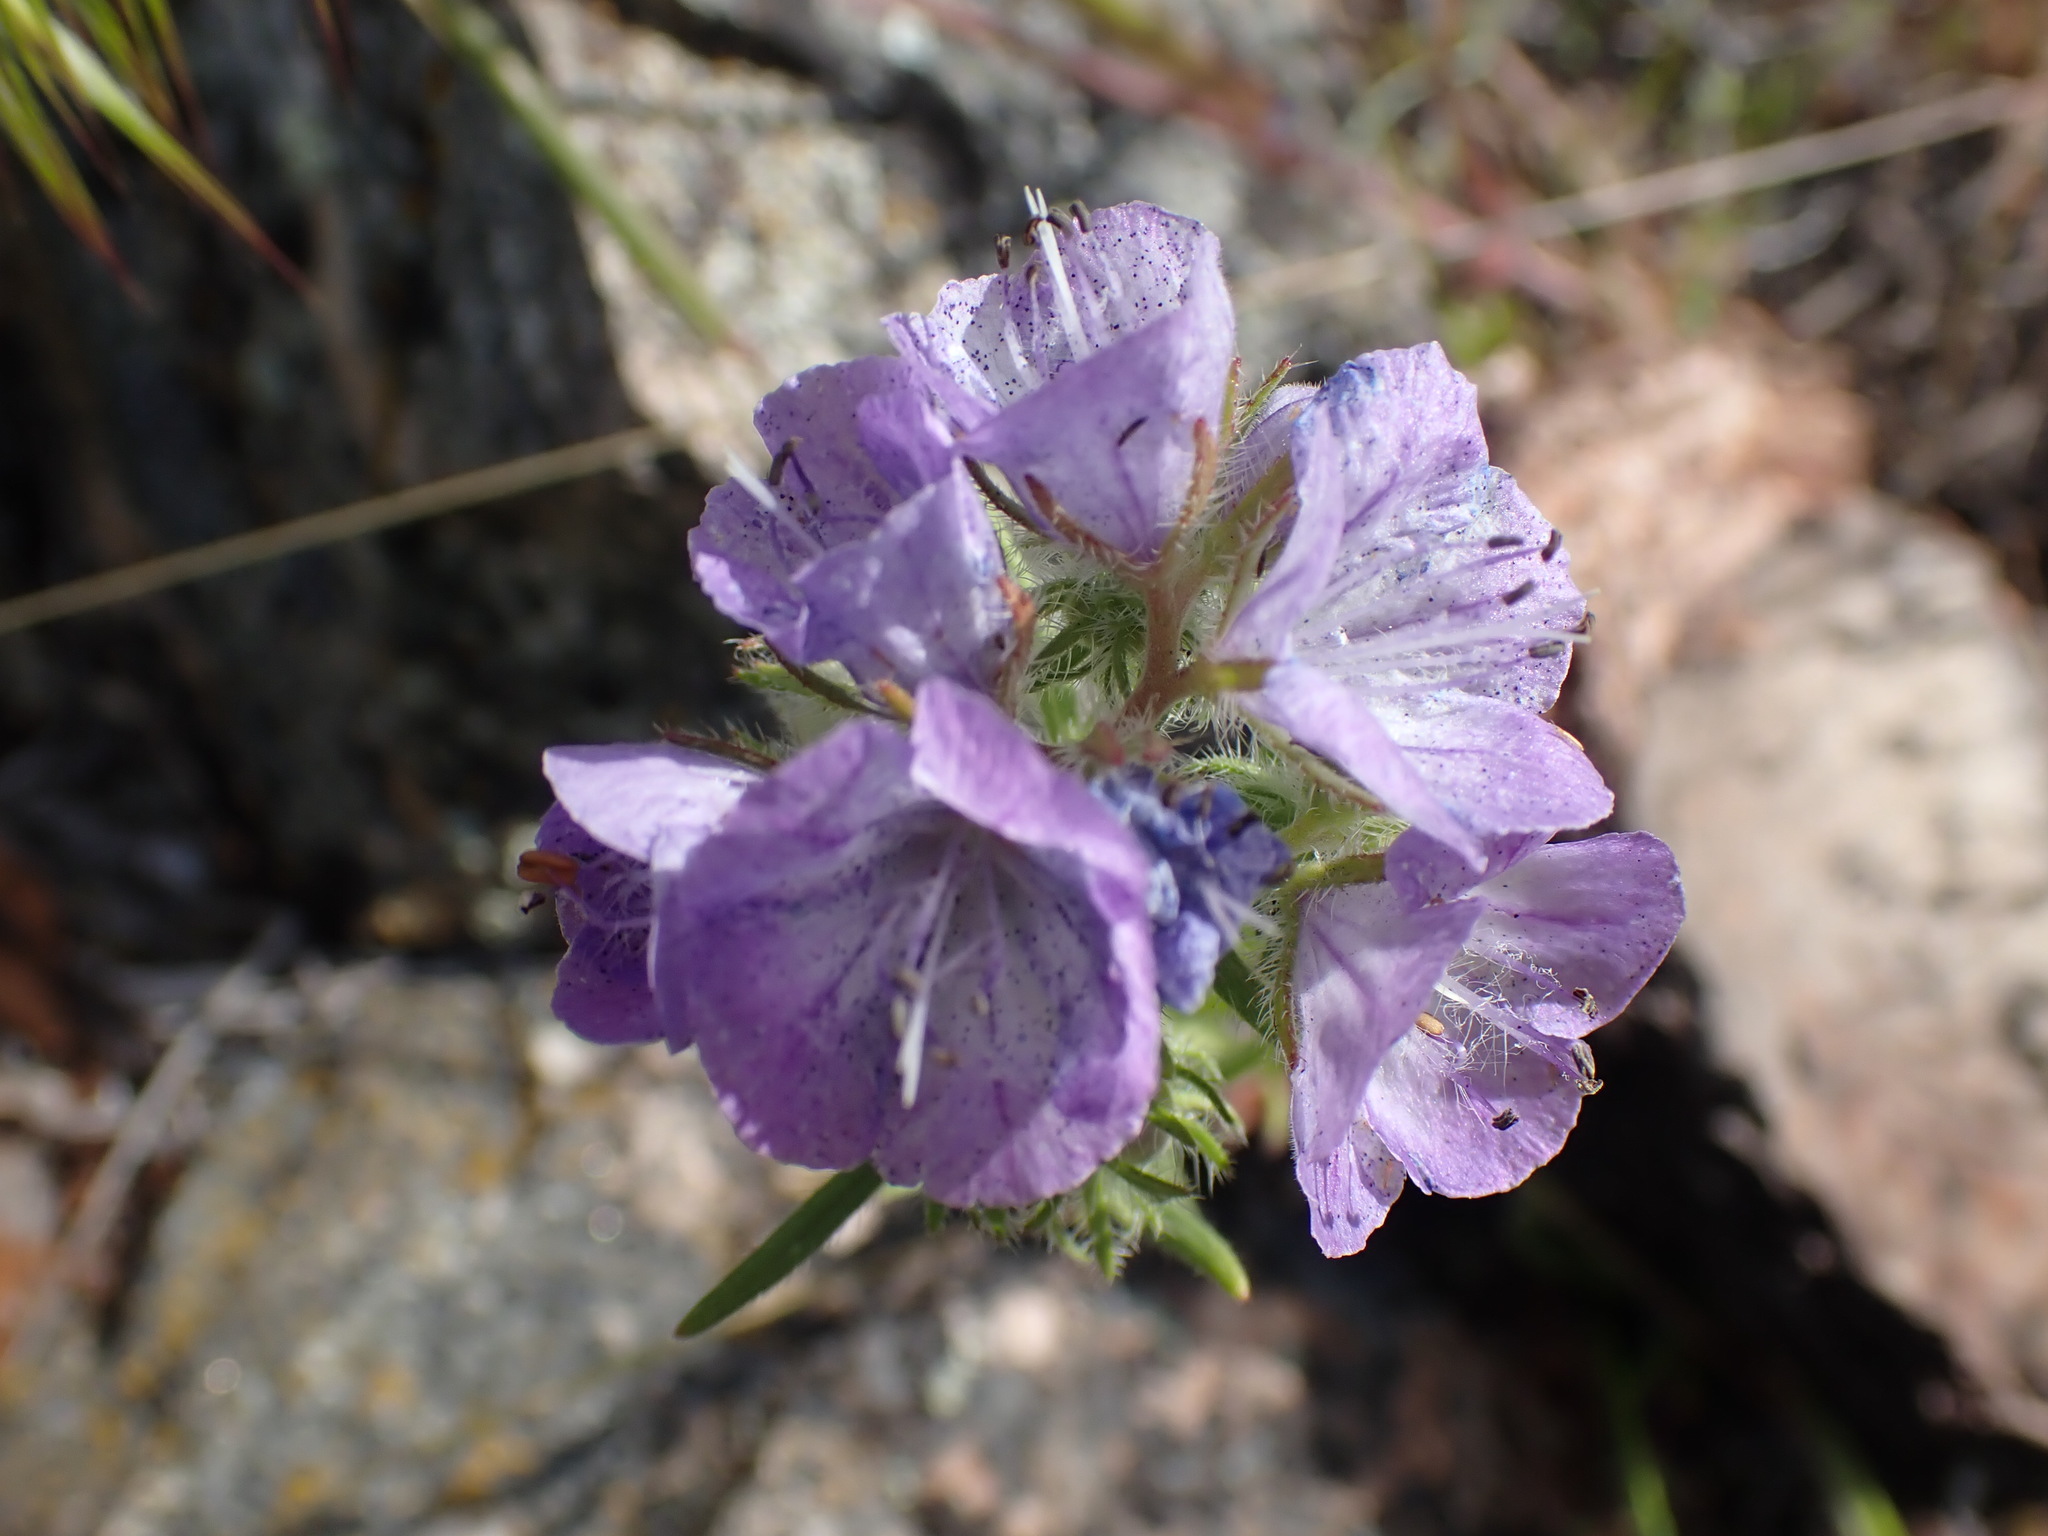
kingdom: Plantae
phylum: Tracheophyta
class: Magnoliopsida
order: Boraginales
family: Hydrophyllaceae
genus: Phacelia
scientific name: Phacelia linearis
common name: Linear-leaved phacelia
